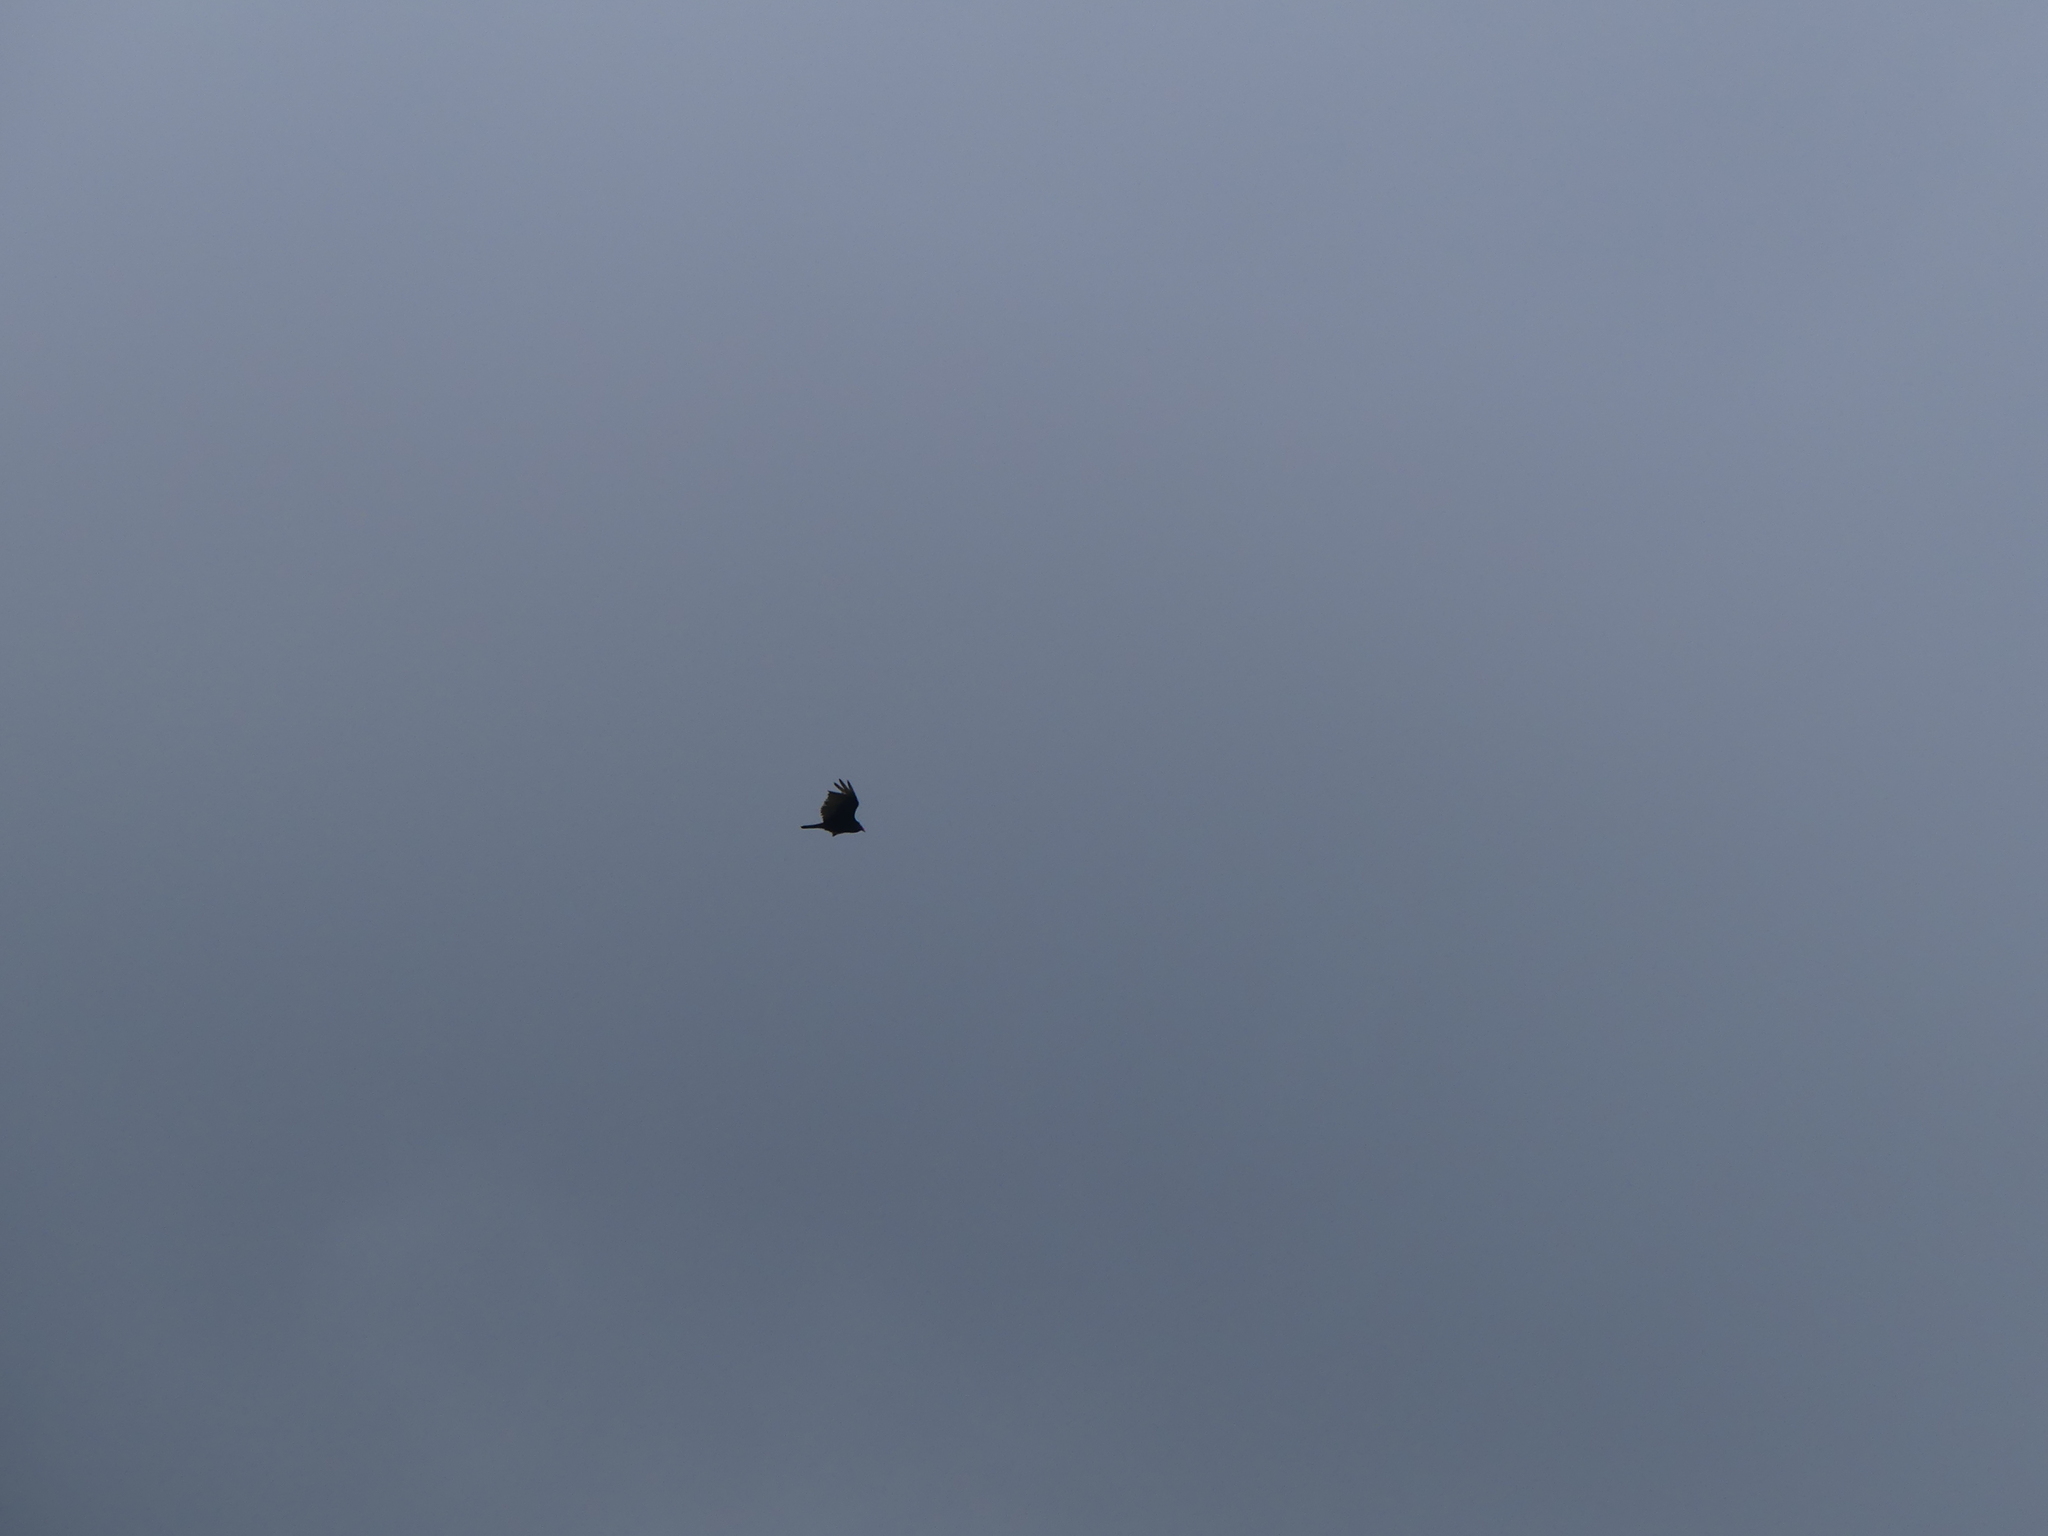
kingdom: Animalia
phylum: Chordata
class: Aves
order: Accipitriformes
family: Cathartidae
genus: Cathartes
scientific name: Cathartes aura
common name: Turkey vulture
